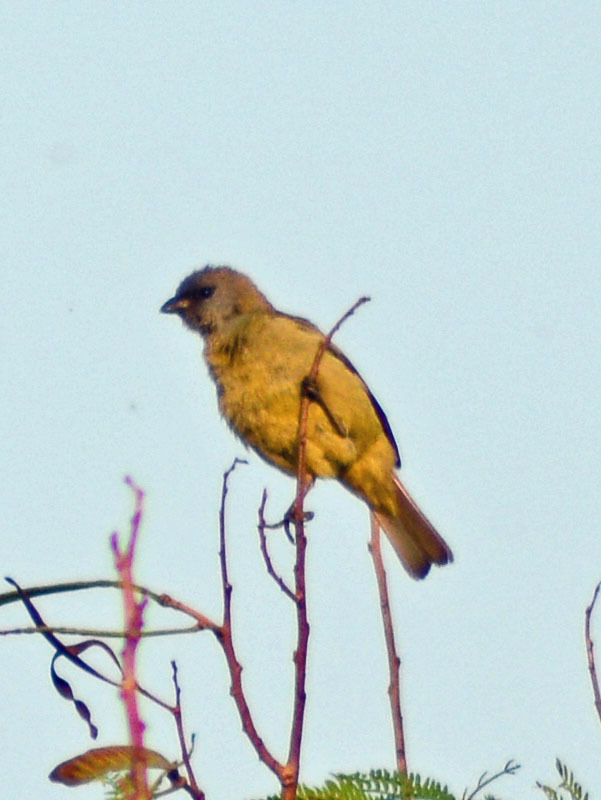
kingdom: Animalia
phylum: Chordata
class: Aves
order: Passeriformes
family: Thraupidae
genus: Thraupis
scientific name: Thraupis abbas
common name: Yellow-winged tanager
